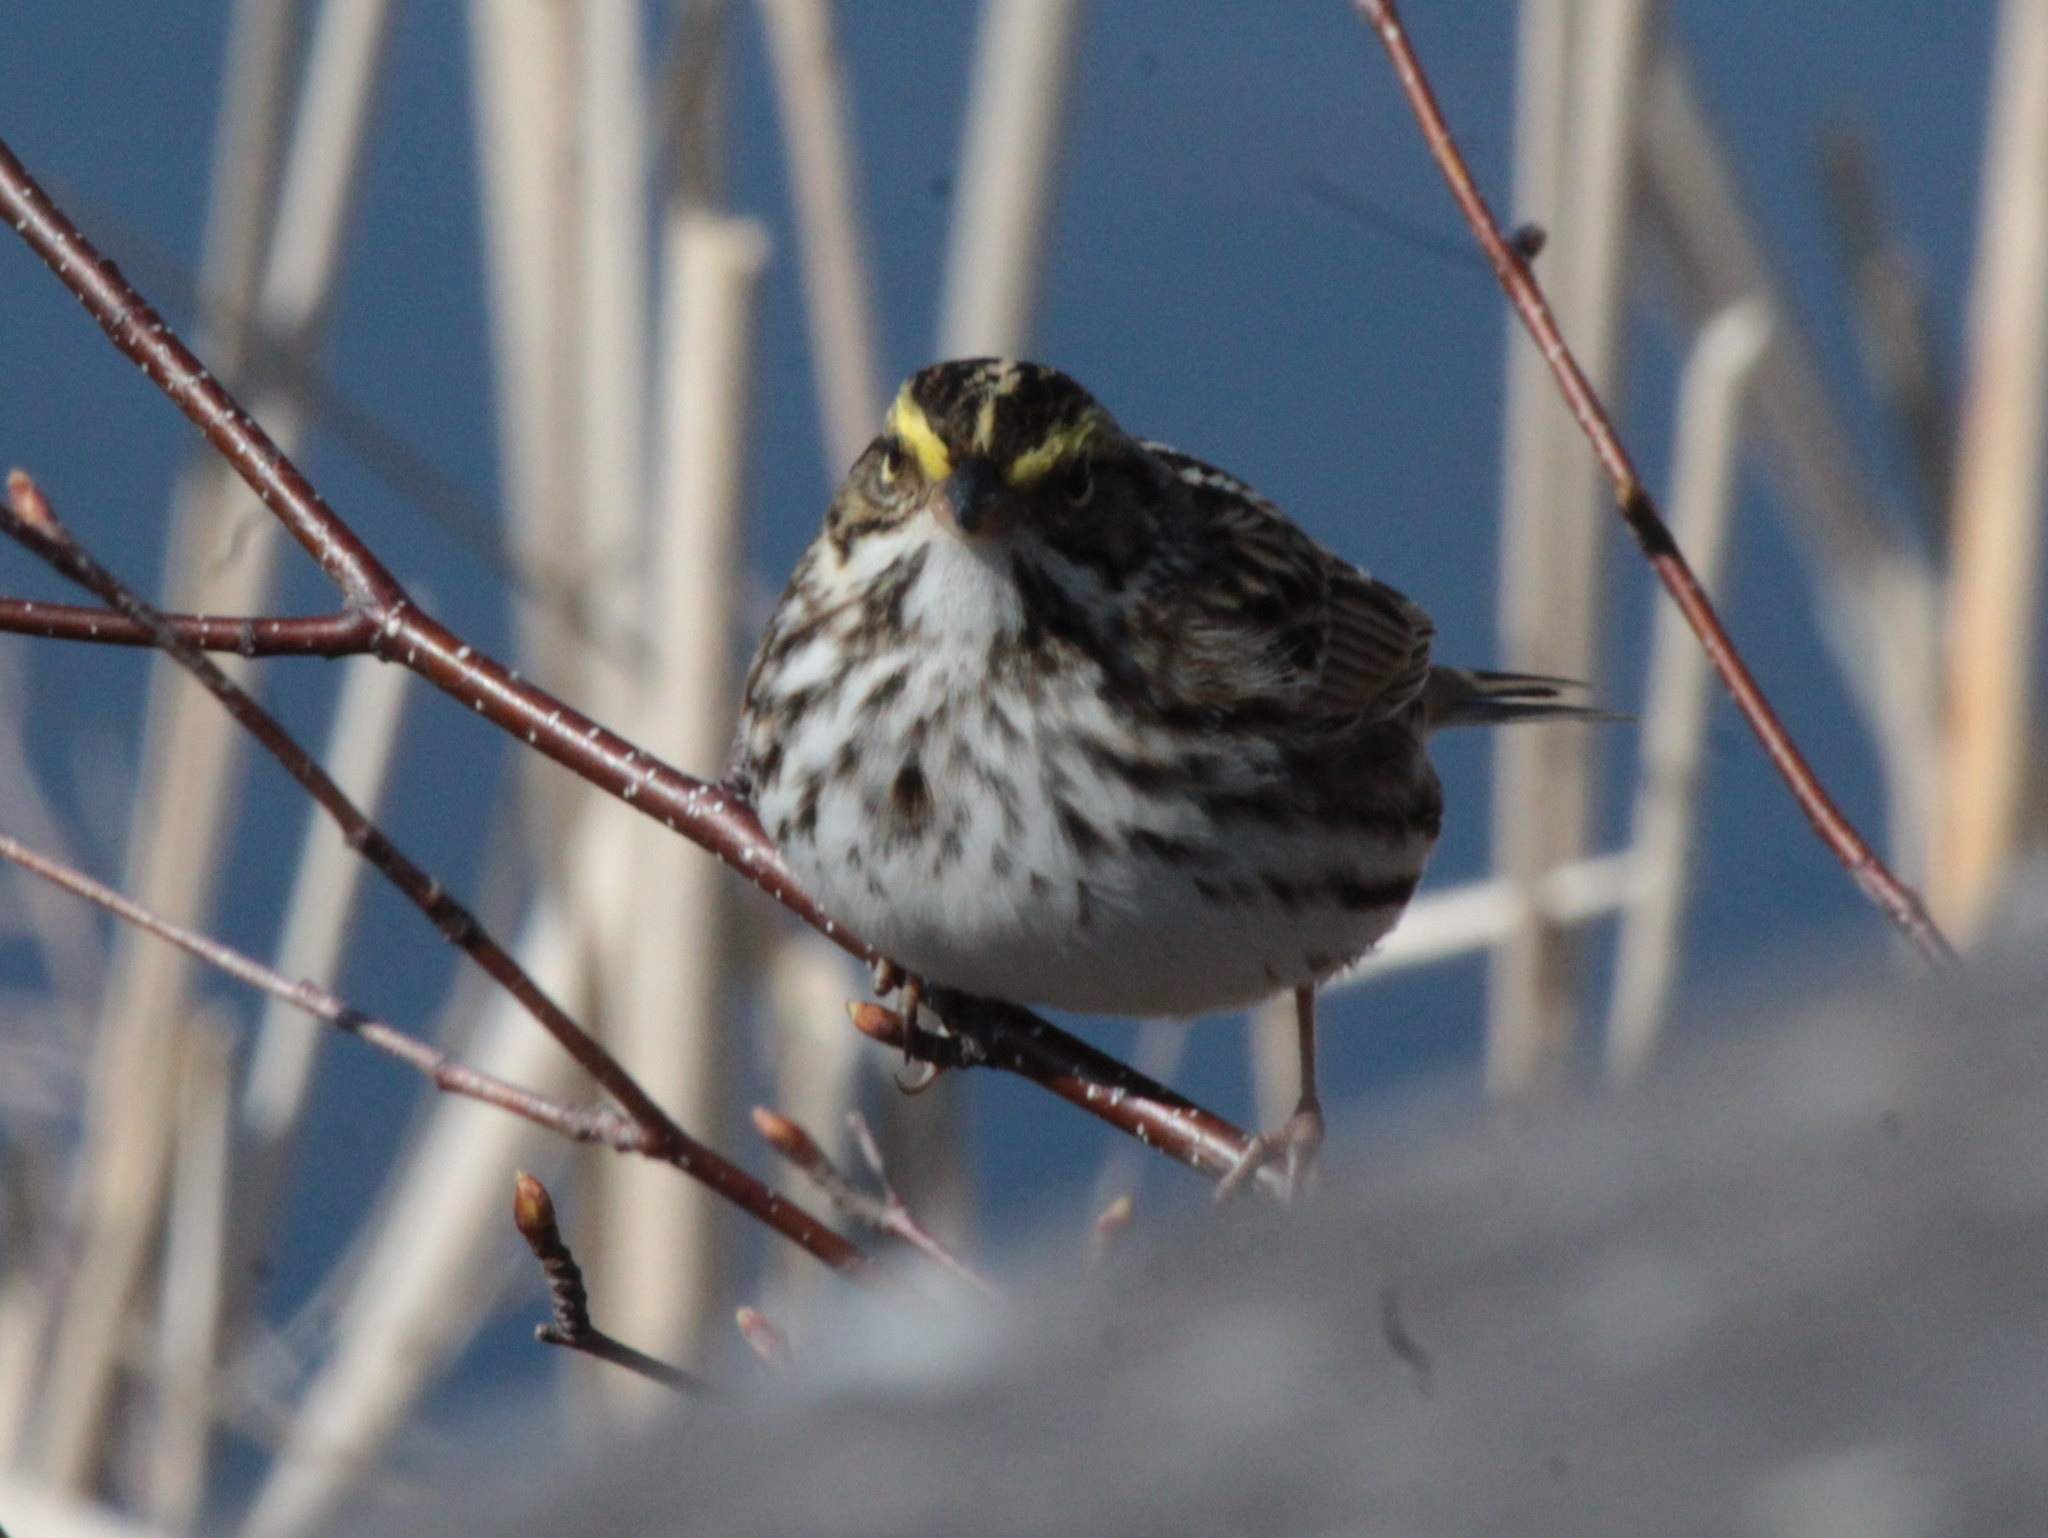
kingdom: Animalia
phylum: Chordata
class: Aves
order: Passeriformes
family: Passerellidae
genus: Passerculus
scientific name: Passerculus sandwichensis
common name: Savannah sparrow
